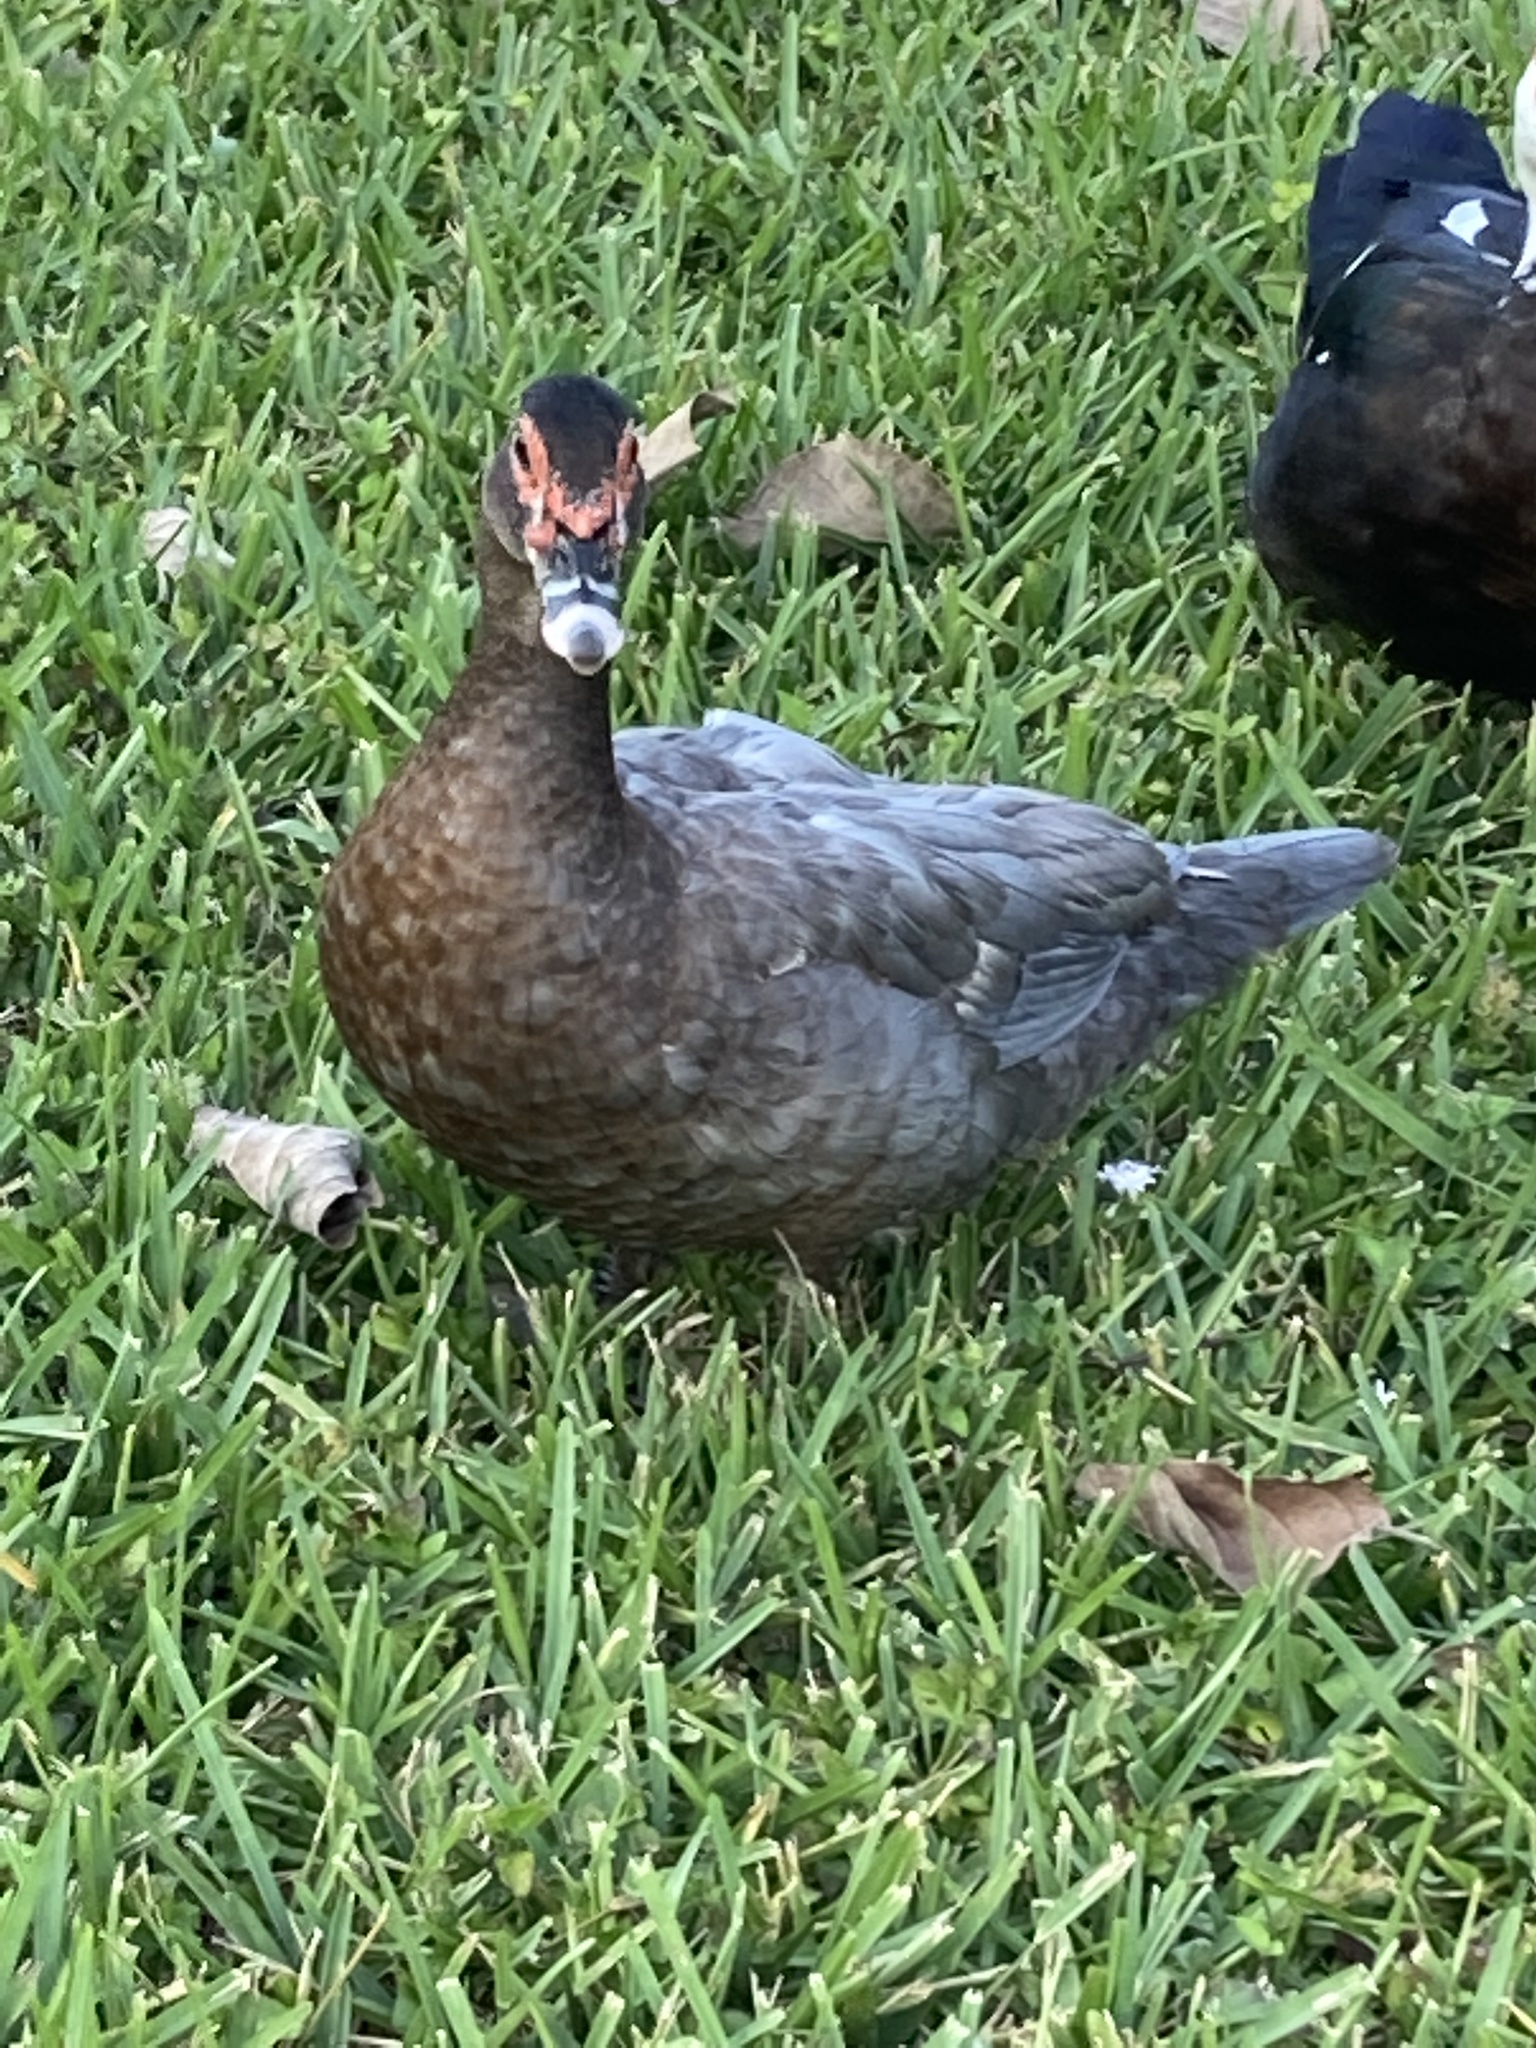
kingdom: Animalia
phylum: Chordata
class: Aves
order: Anseriformes
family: Anatidae
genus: Cairina
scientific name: Cairina moschata
